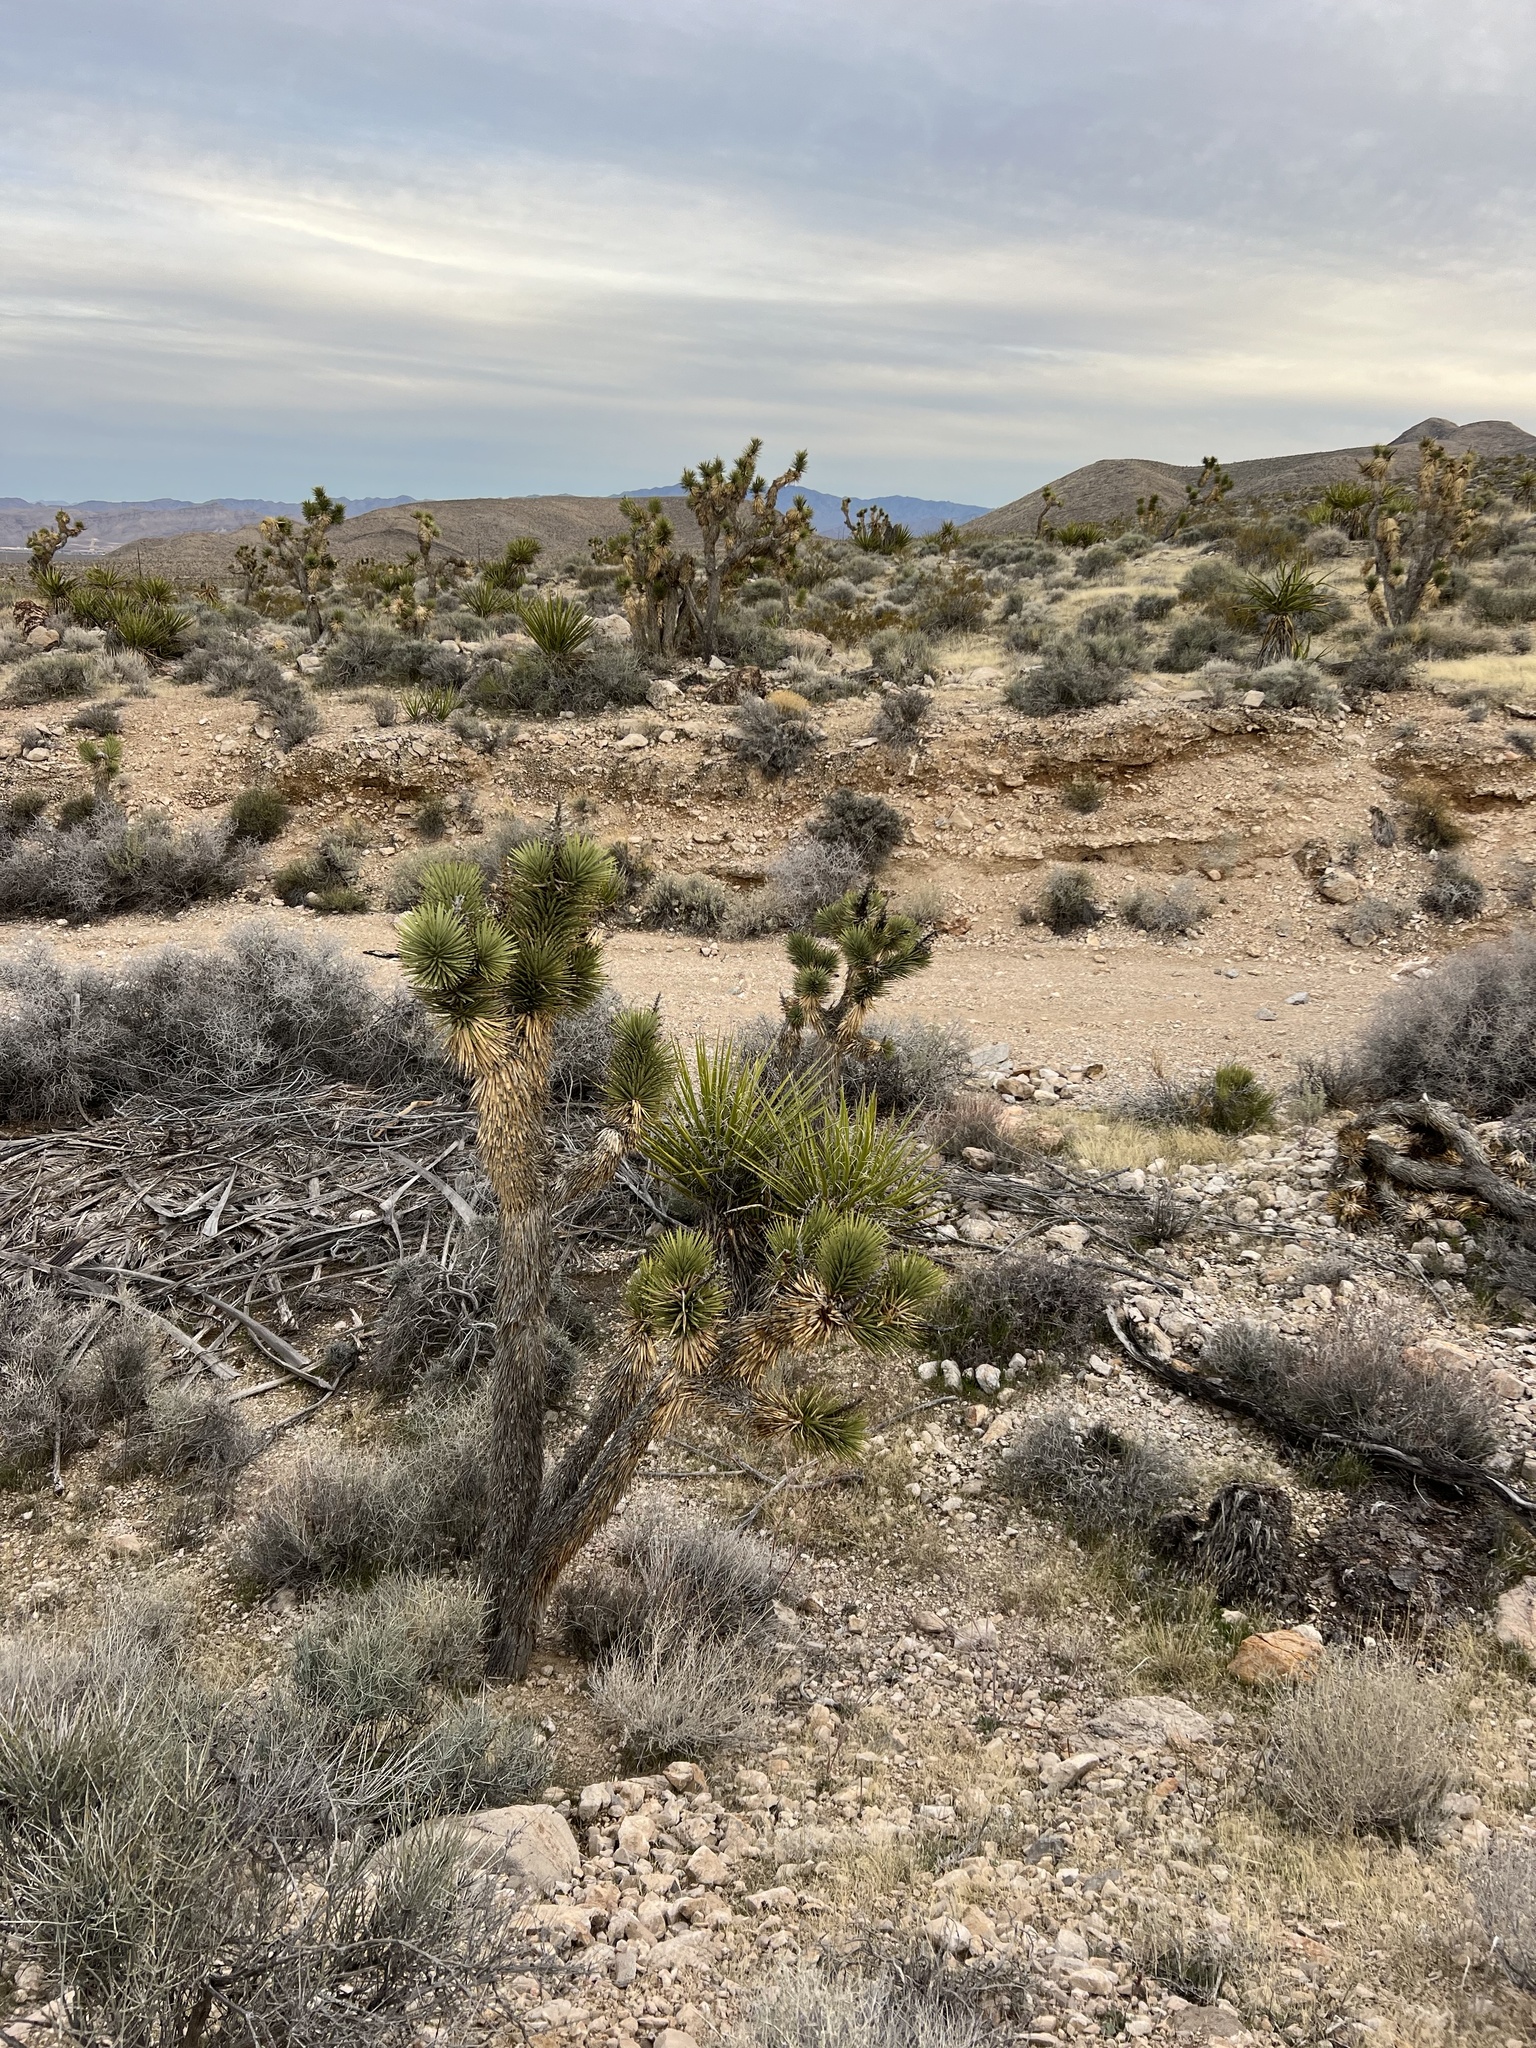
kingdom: Plantae
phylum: Tracheophyta
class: Liliopsida
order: Asparagales
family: Asparagaceae
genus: Yucca
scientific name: Yucca brevifolia
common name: Joshua tree
